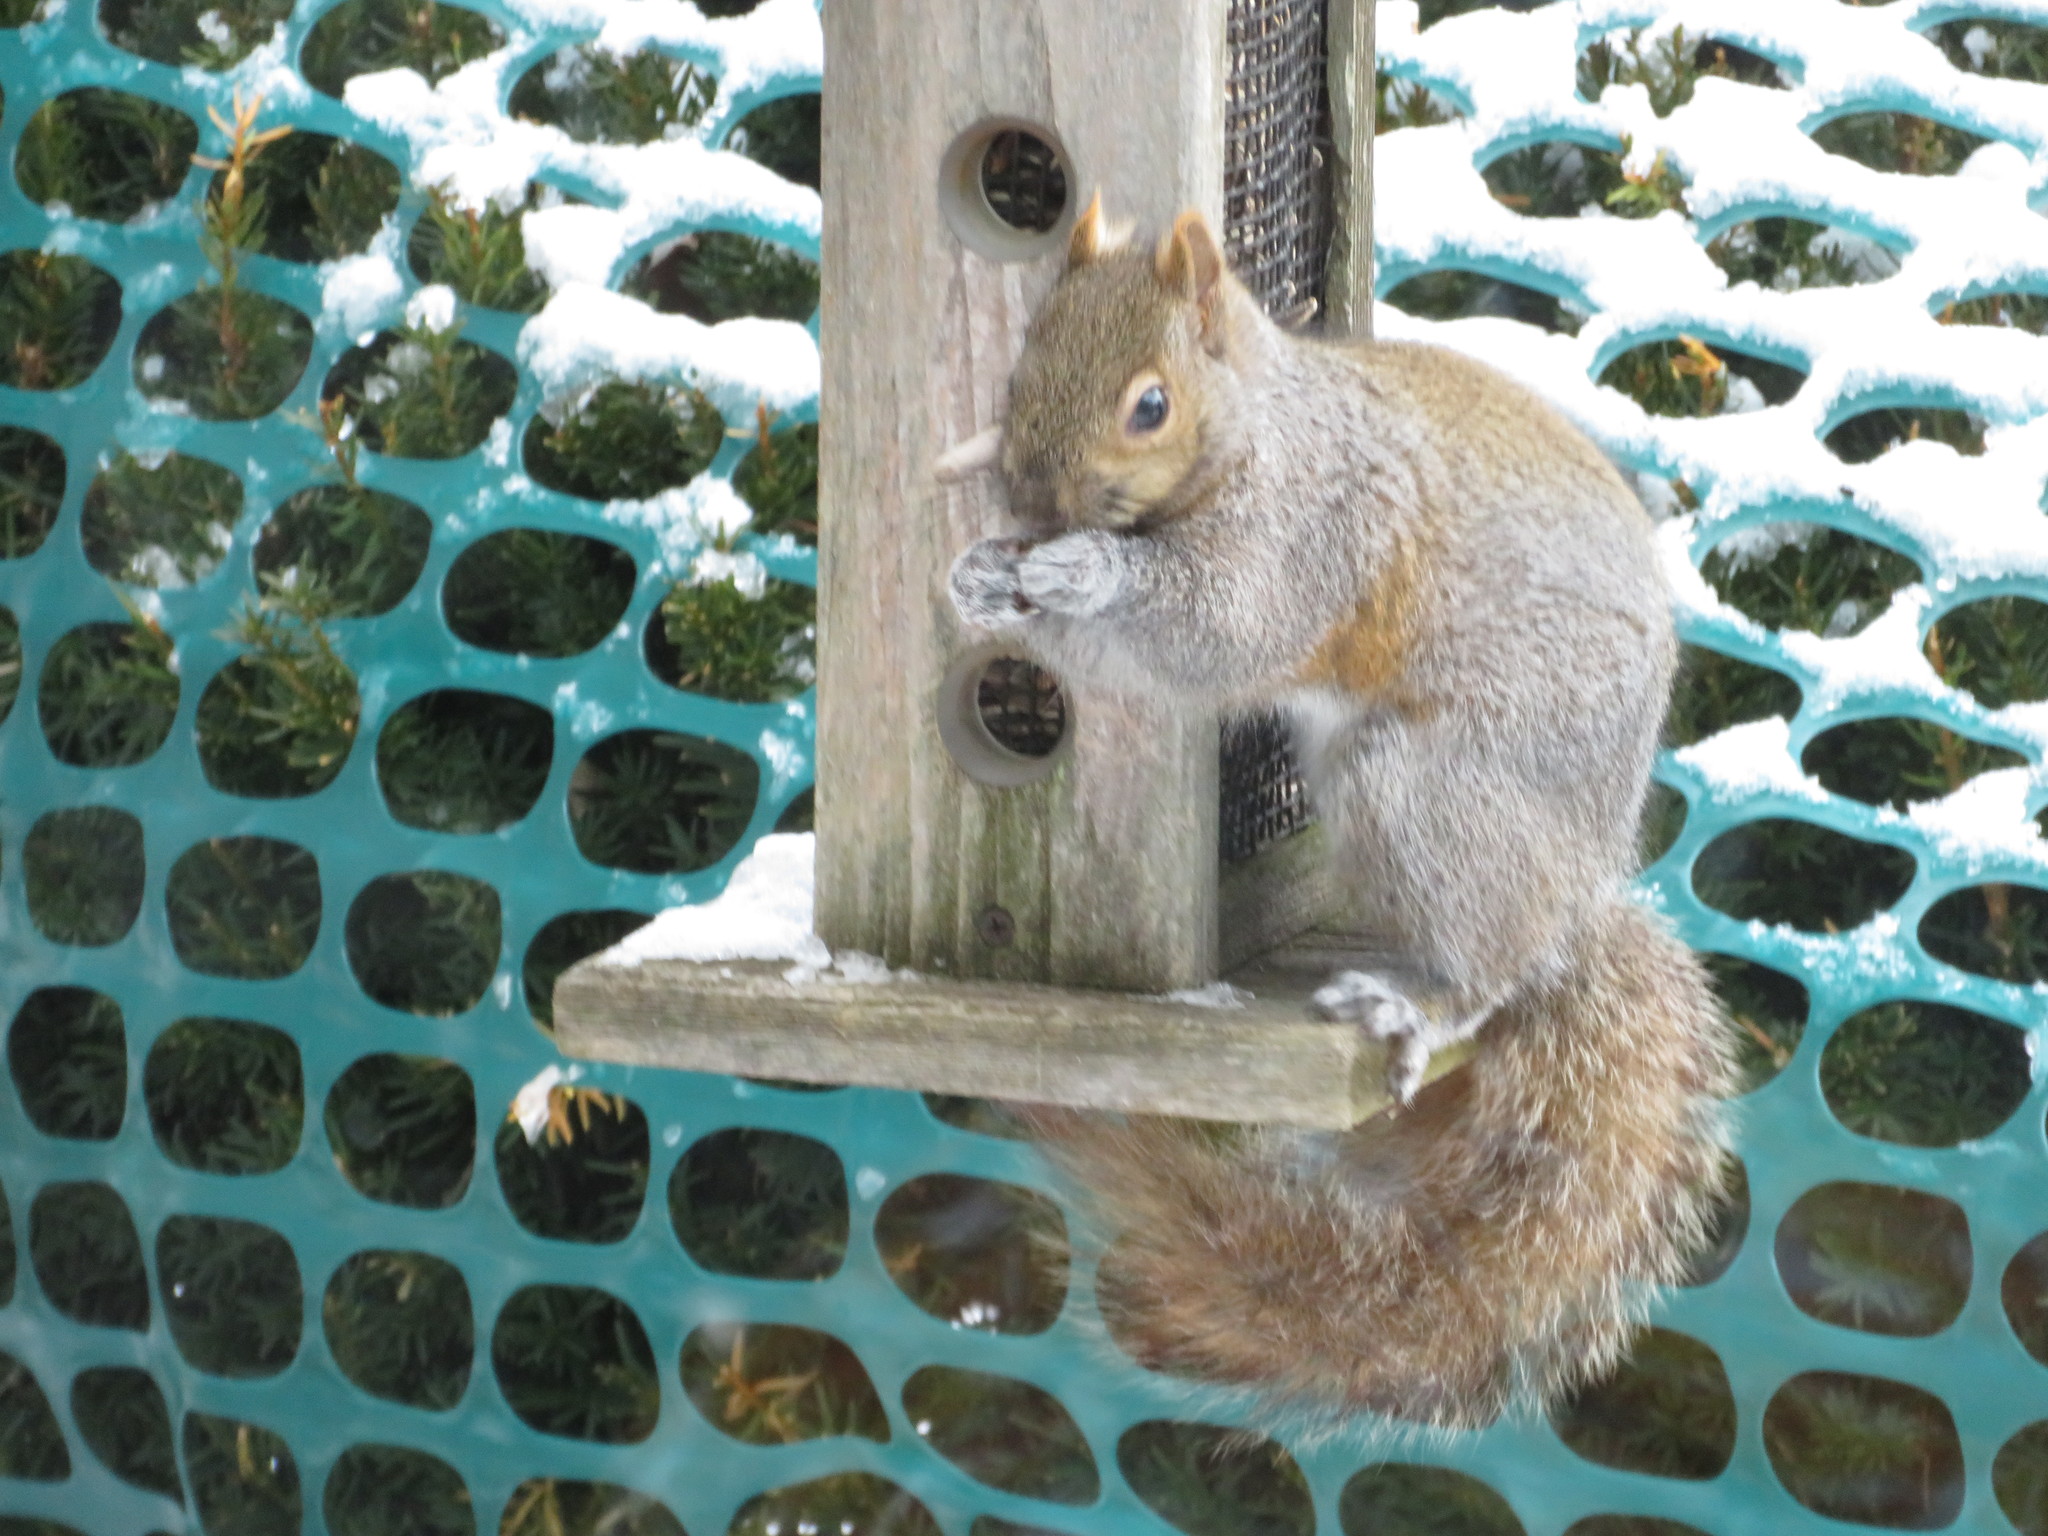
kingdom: Animalia
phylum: Chordata
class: Mammalia
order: Rodentia
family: Sciuridae
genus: Sciurus
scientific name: Sciurus carolinensis
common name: Eastern gray squirrel
